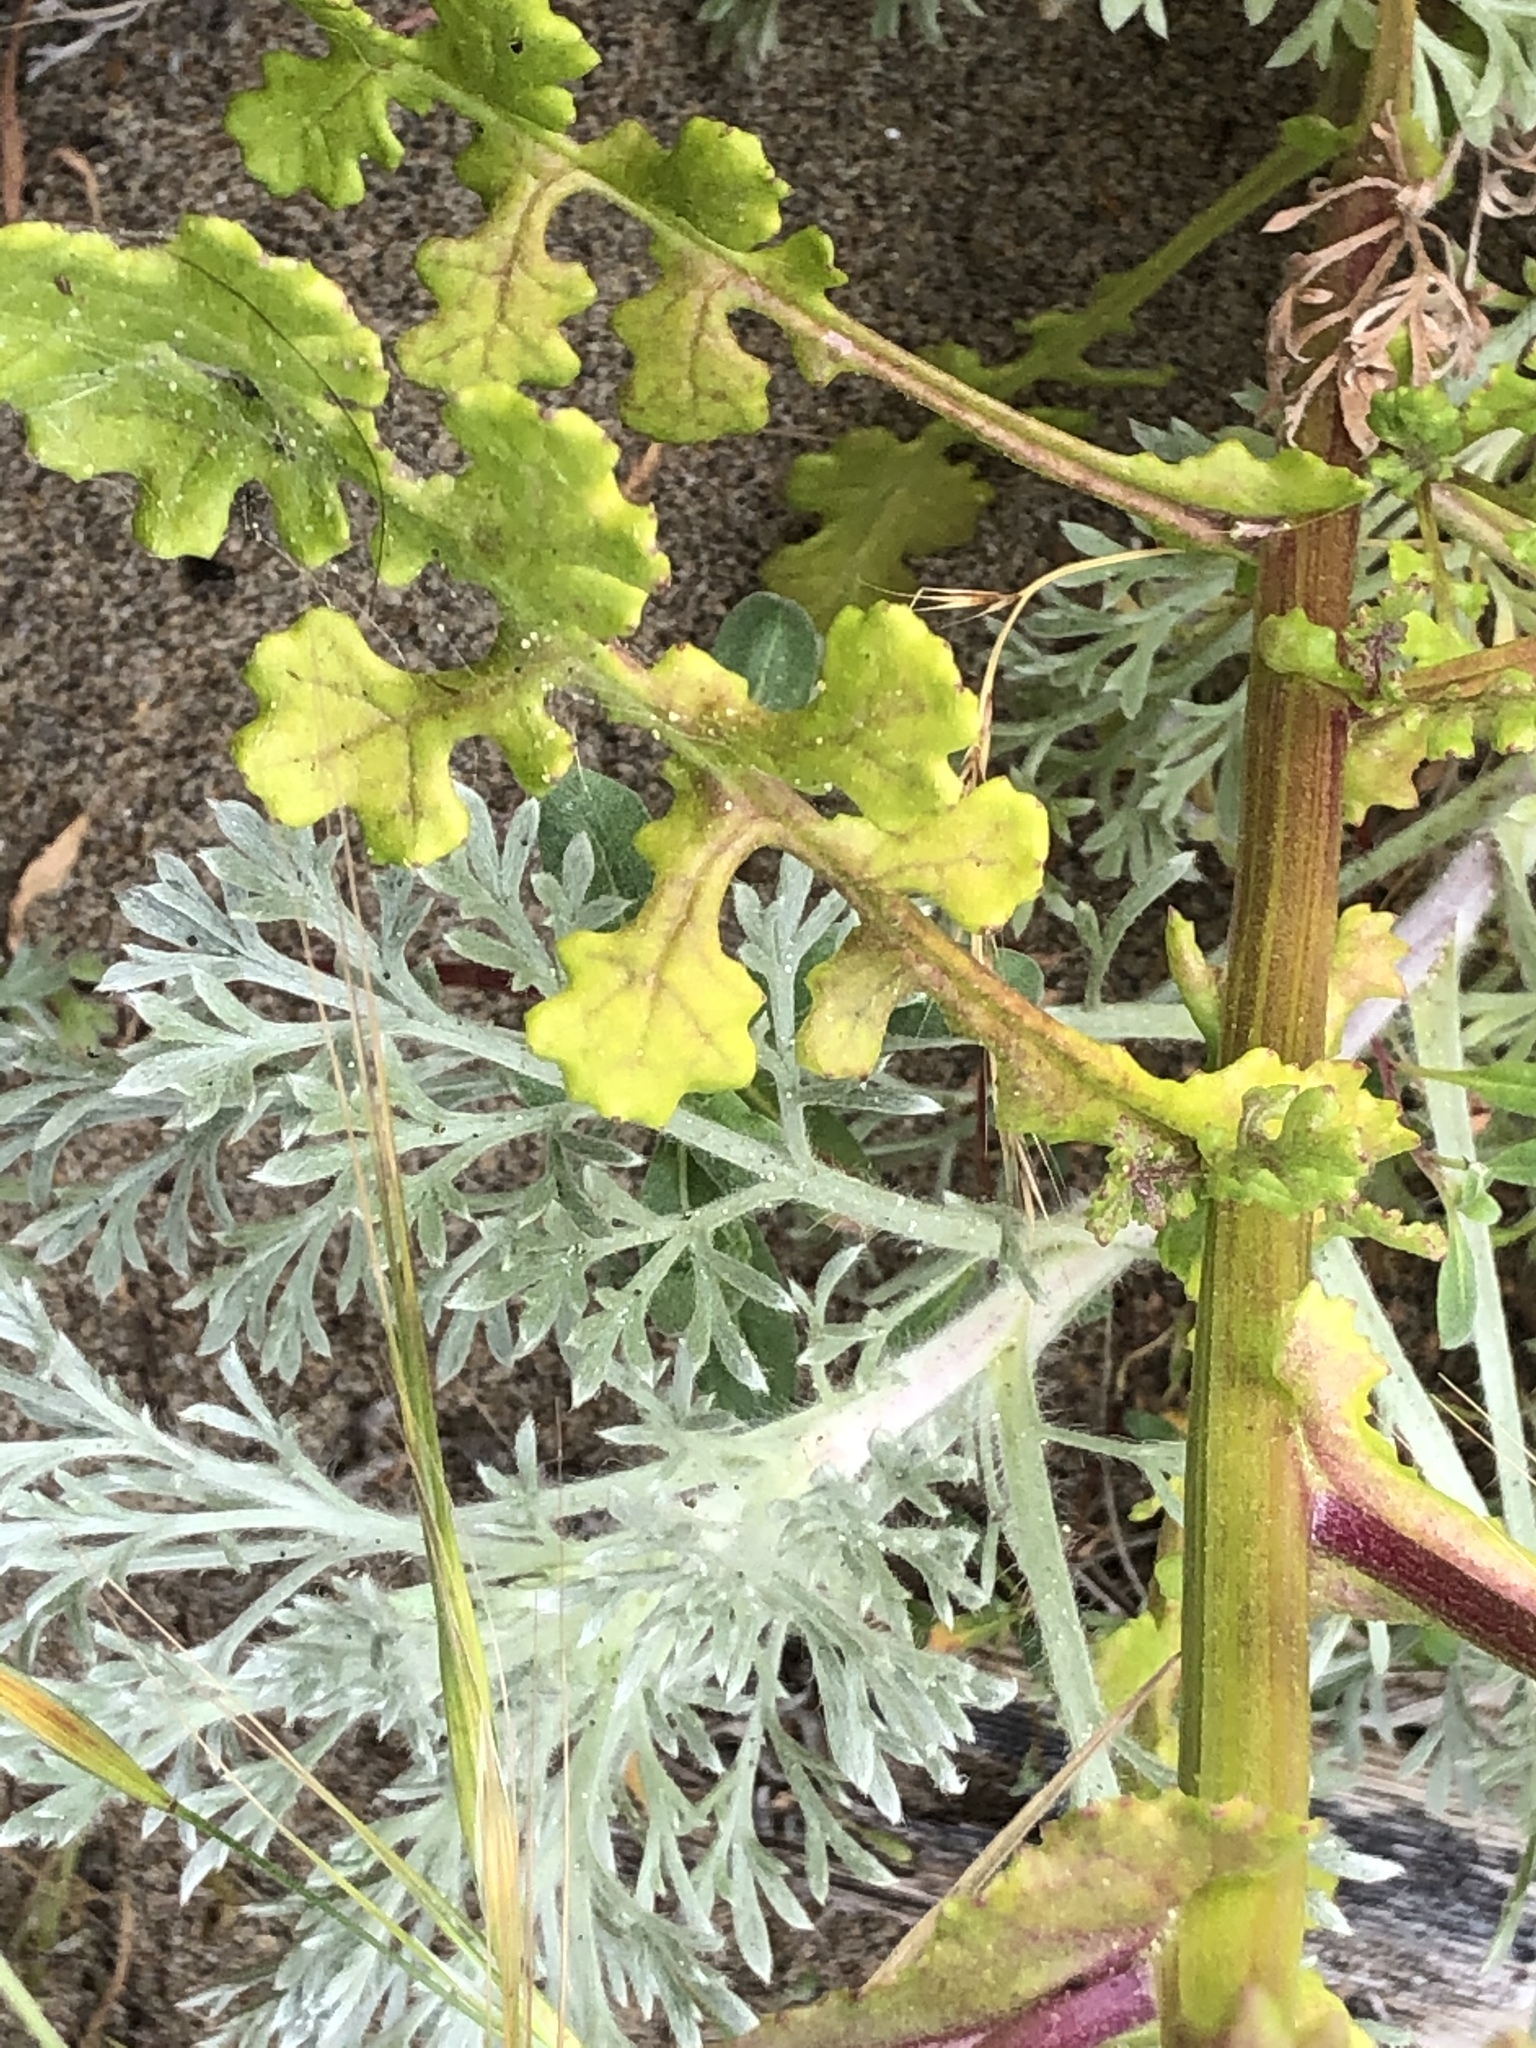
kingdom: Plantae
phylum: Tracheophyta
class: Magnoliopsida
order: Asterales
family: Asteraceae
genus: Senecio
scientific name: Senecio elegans
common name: Purple groundsel
